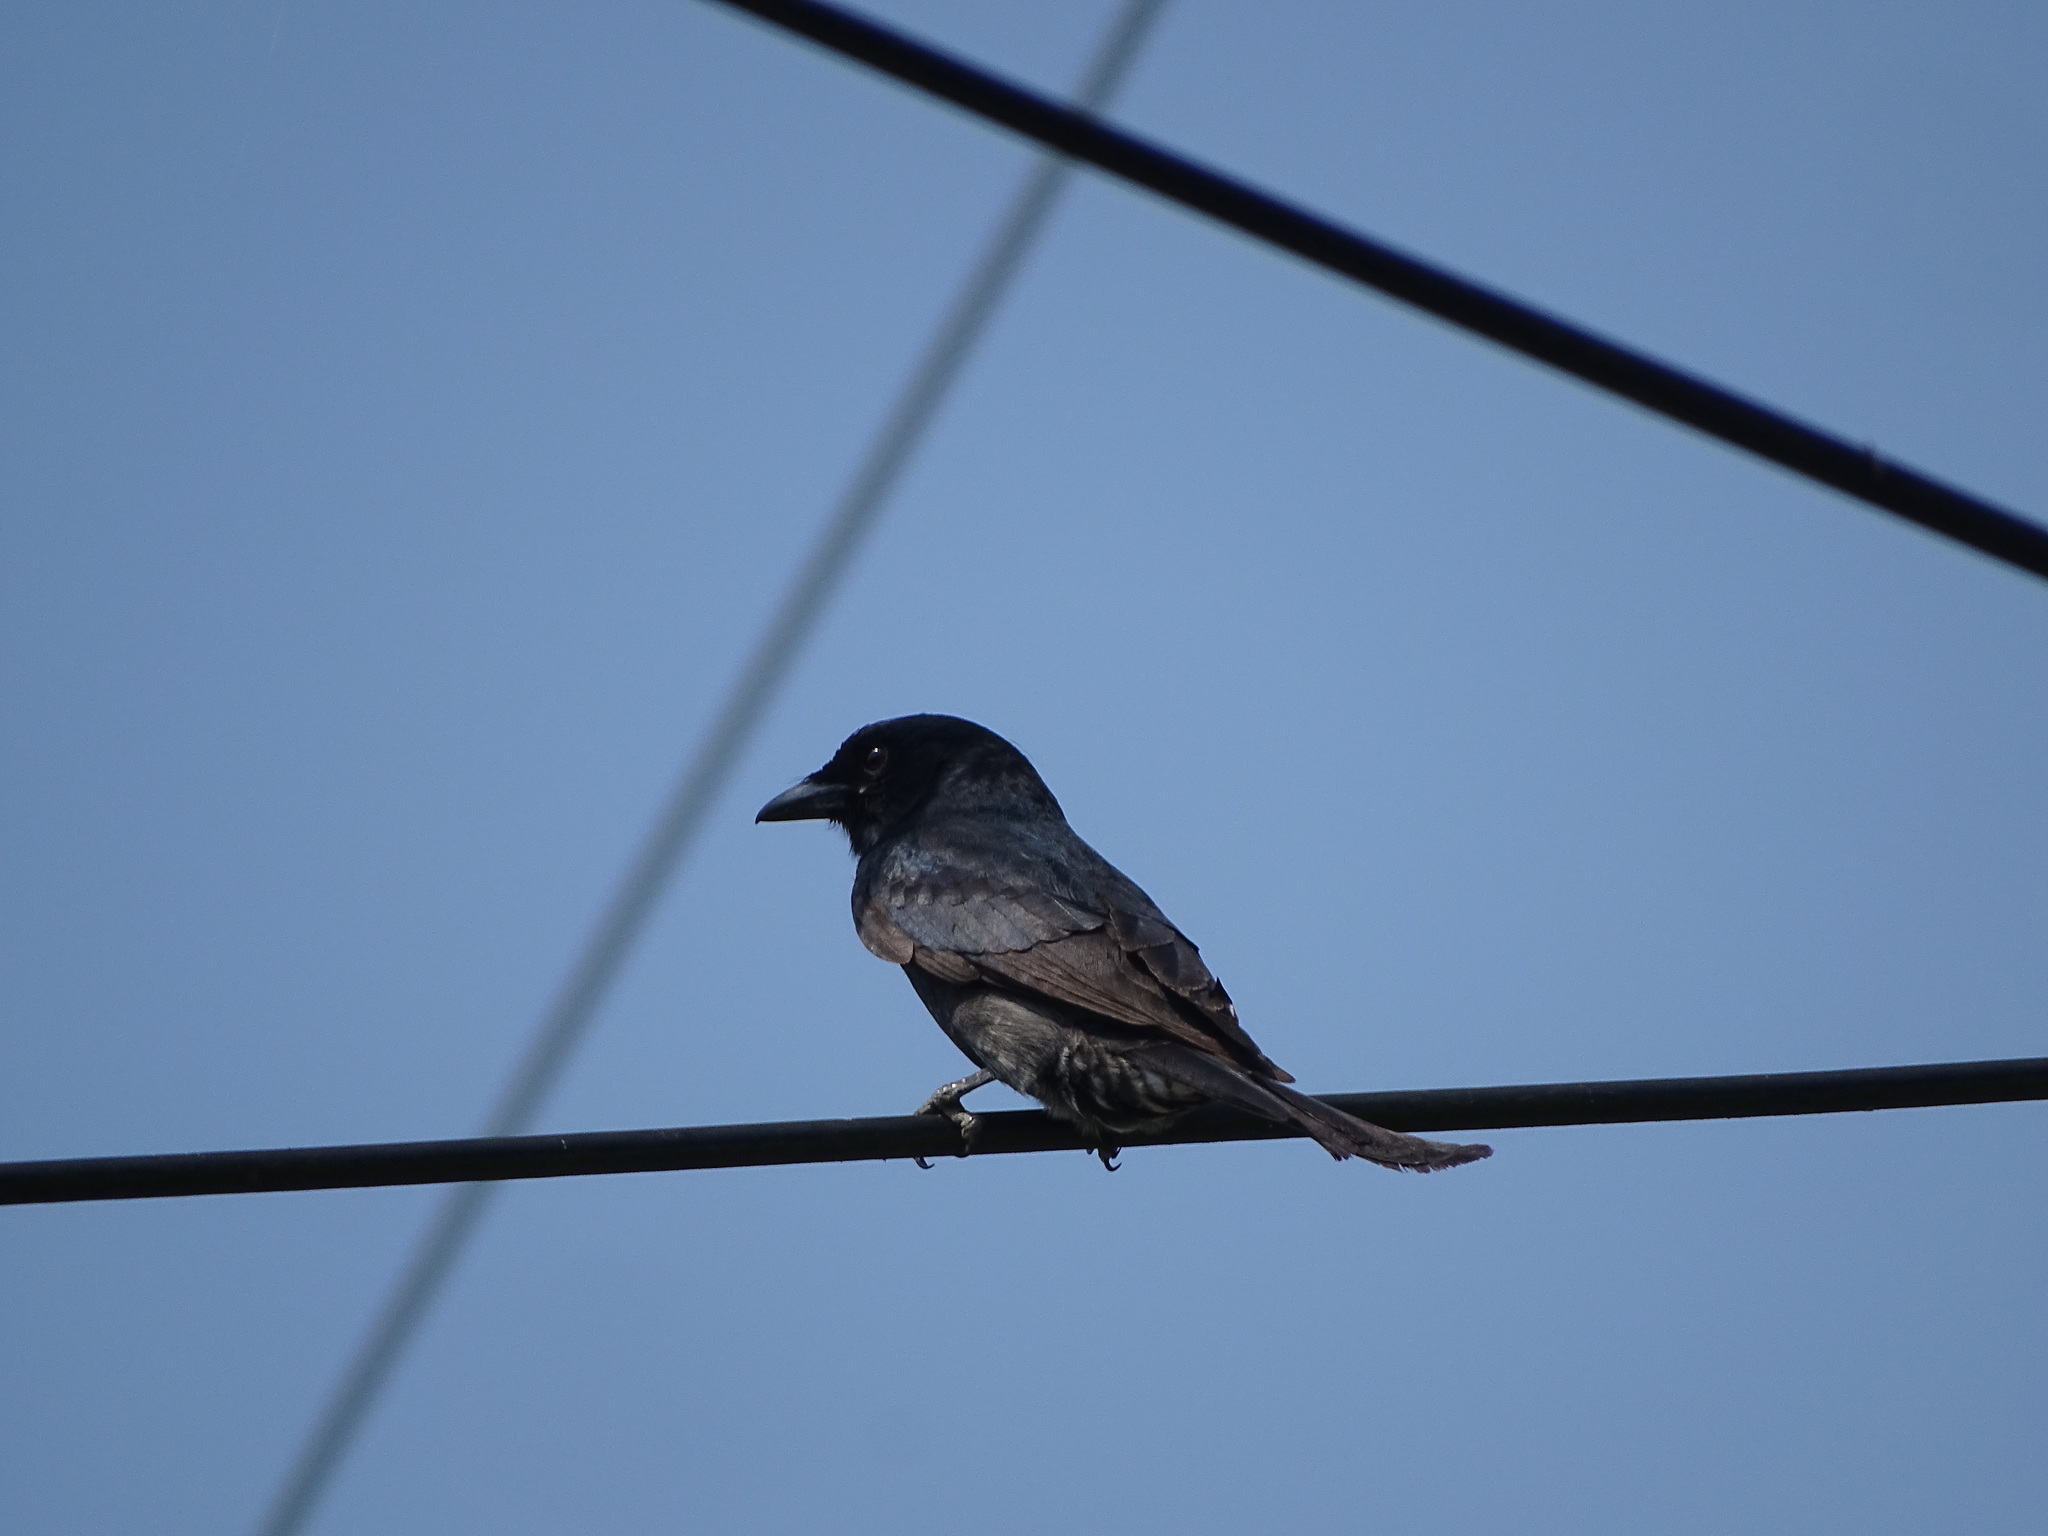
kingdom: Animalia
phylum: Chordata
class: Aves
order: Passeriformes
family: Dicruridae
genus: Dicrurus
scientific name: Dicrurus macrocercus
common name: Black drongo
